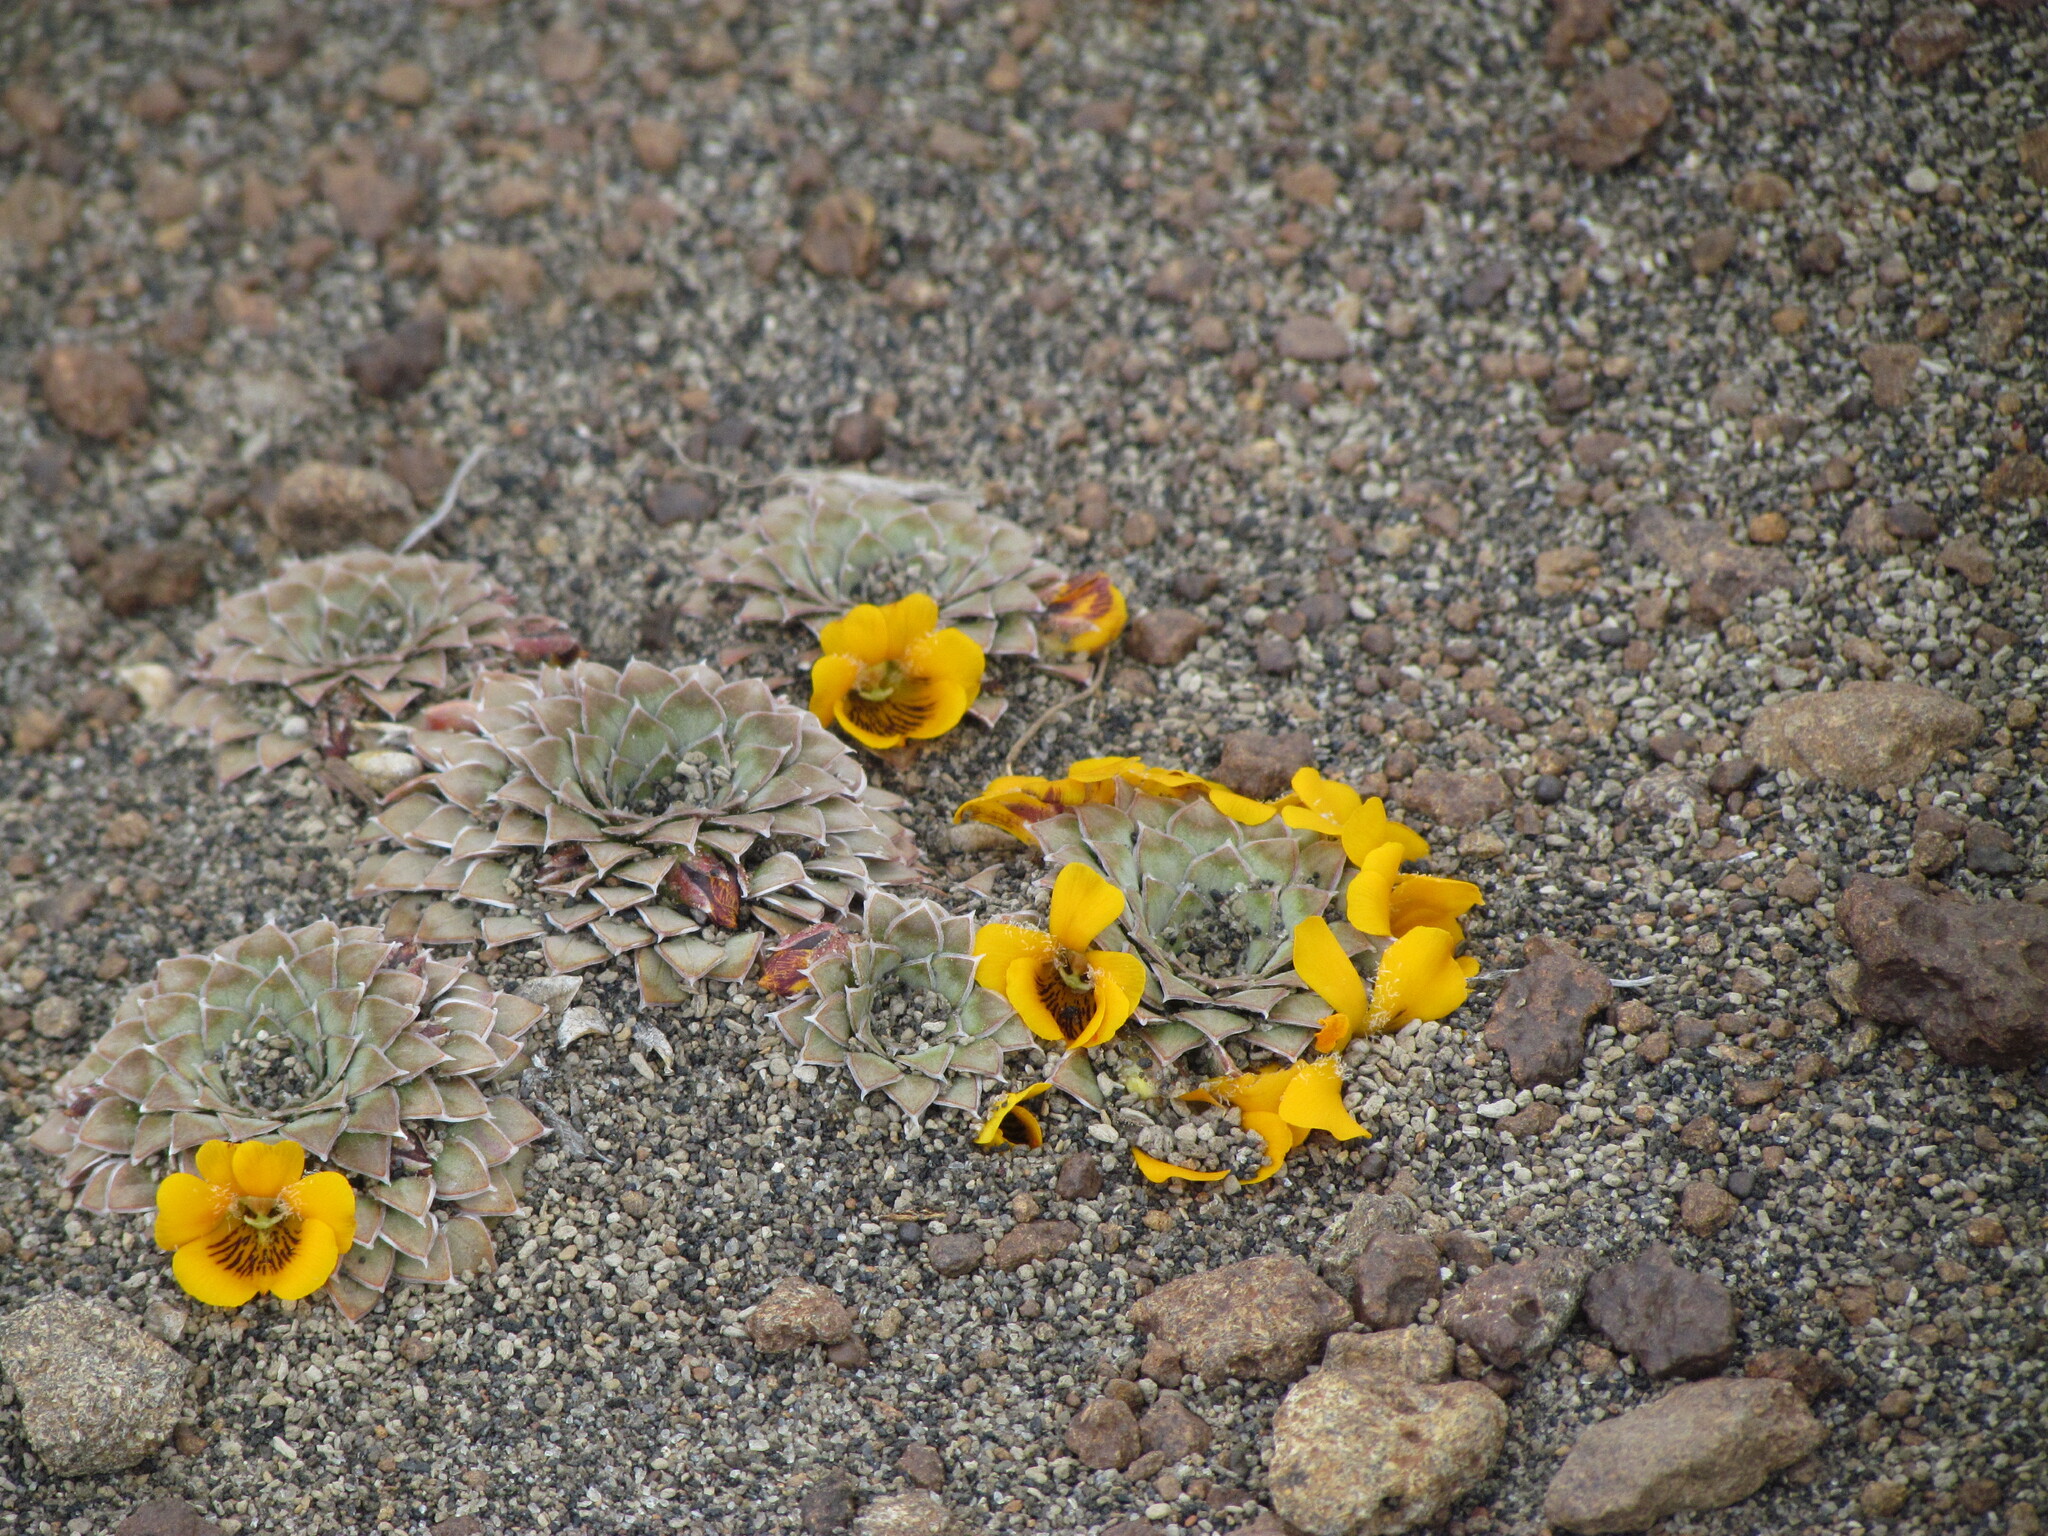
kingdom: Plantae
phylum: Tracheophyta
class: Magnoliopsida
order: Malpighiales
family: Violaceae
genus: Viola
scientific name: Viola auricolor
